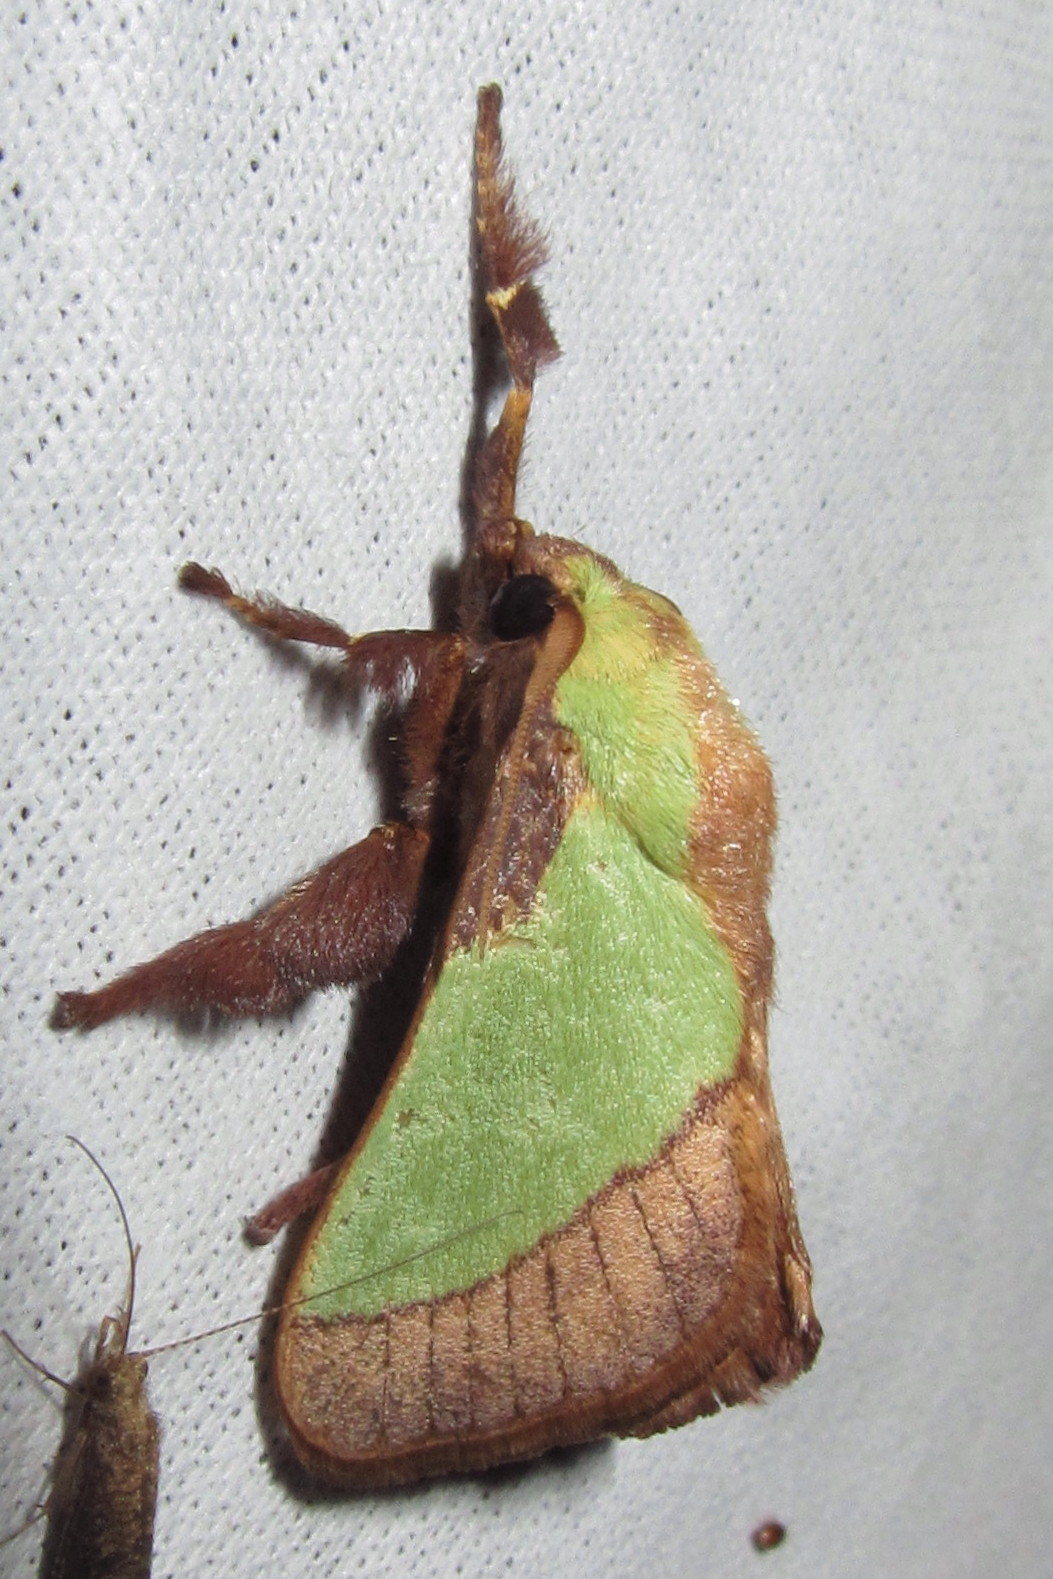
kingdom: Animalia
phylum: Arthropoda
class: Insecta
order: Lepidoptera
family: Limacodidae
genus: Parasa
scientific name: Parasa lepida
